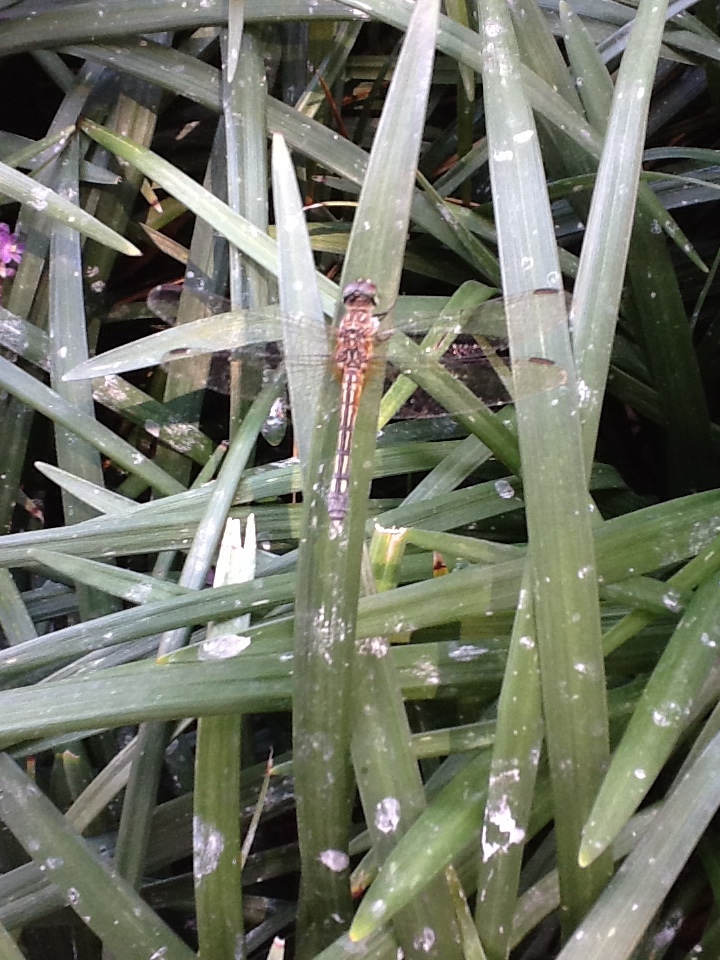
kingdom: Animalia
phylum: Arthropoda
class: Insecta
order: Odonata
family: Libellulidae
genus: Pachydiplax
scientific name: Pachydiplax longipennis
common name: Blue dasher
